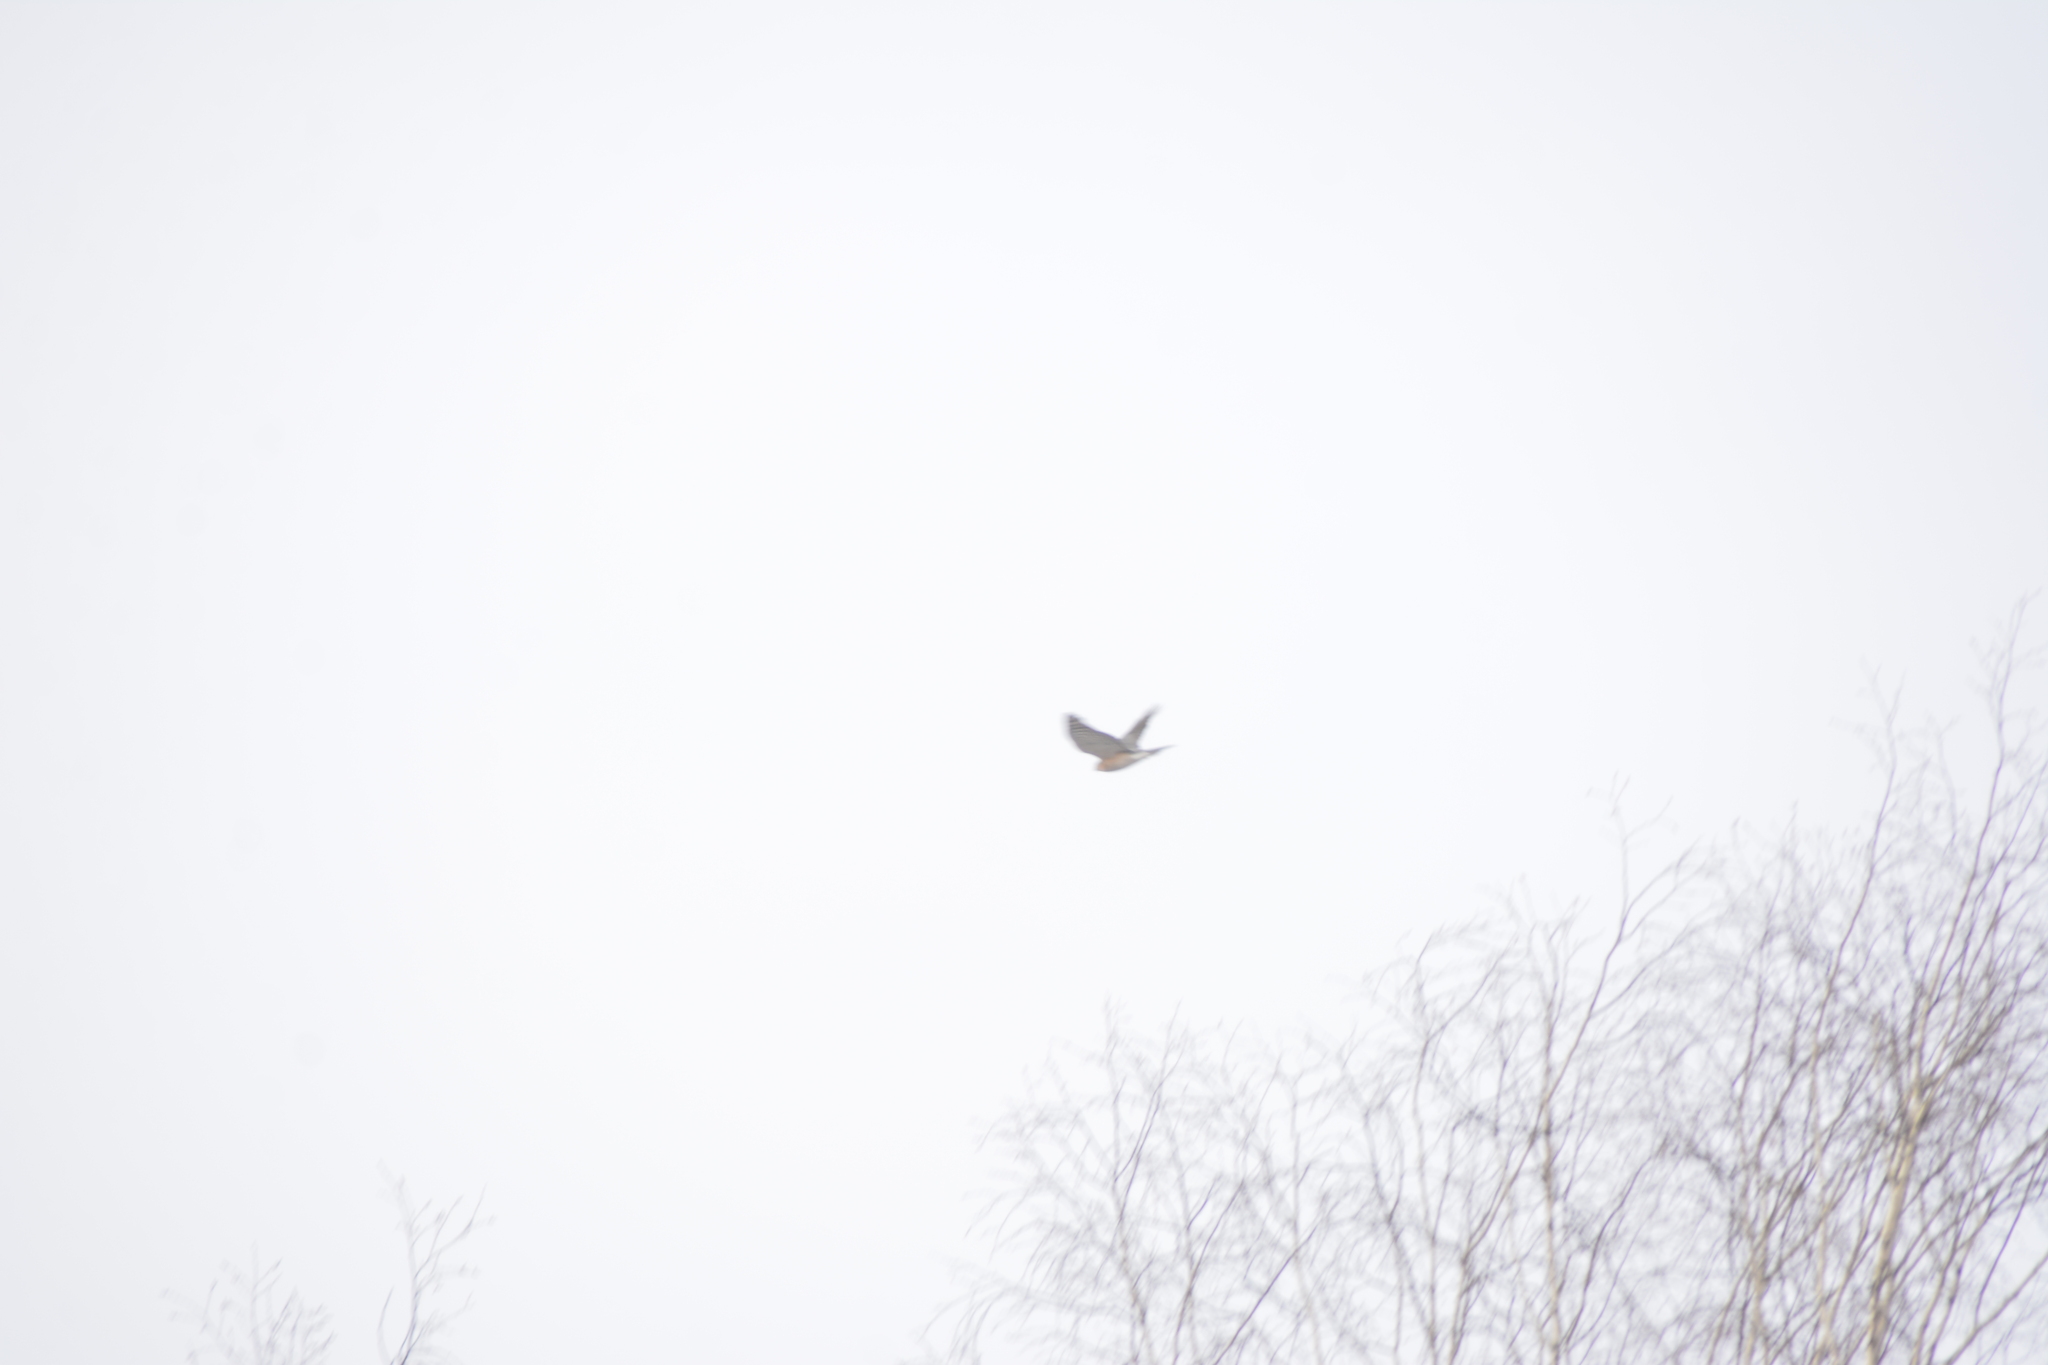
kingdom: Animalia
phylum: Chordata
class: Aves
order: Accipitriformes
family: Accipitridae
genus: Accipiter
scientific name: Accipiter nisus
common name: Eurasian sparrowhawk
